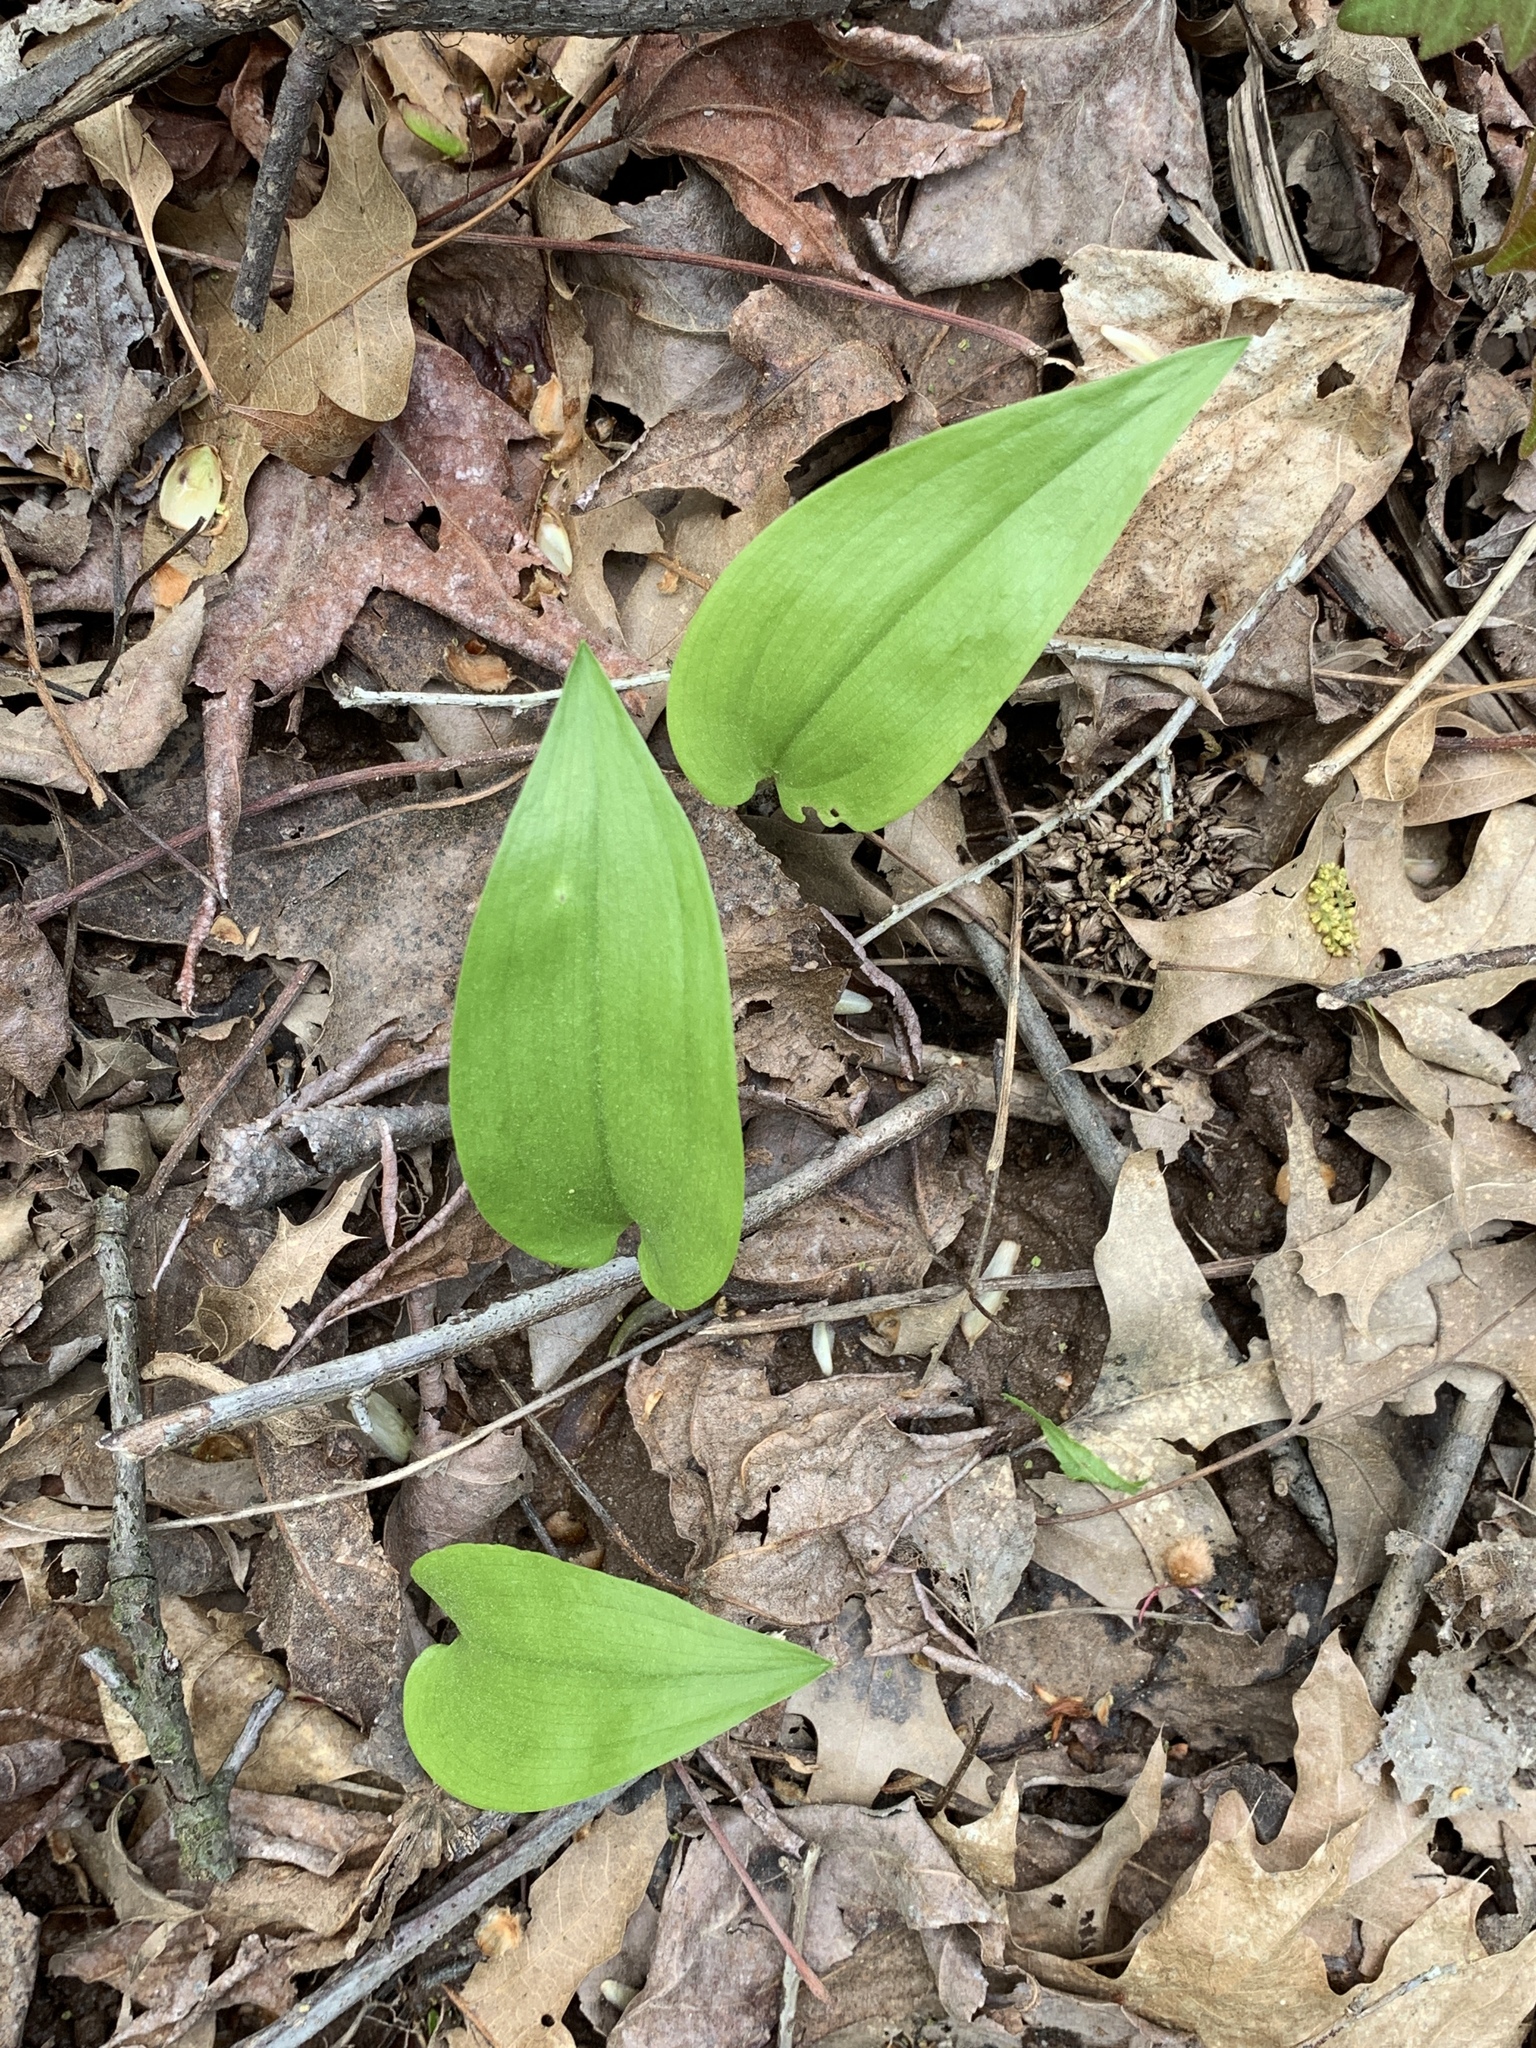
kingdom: Plantae
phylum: Tracheophyta
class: Liliopsida
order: Asparagales
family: Asparagaceae
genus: Maianthemum
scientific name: Maianthemum canadense
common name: False lily-of-the-valley
